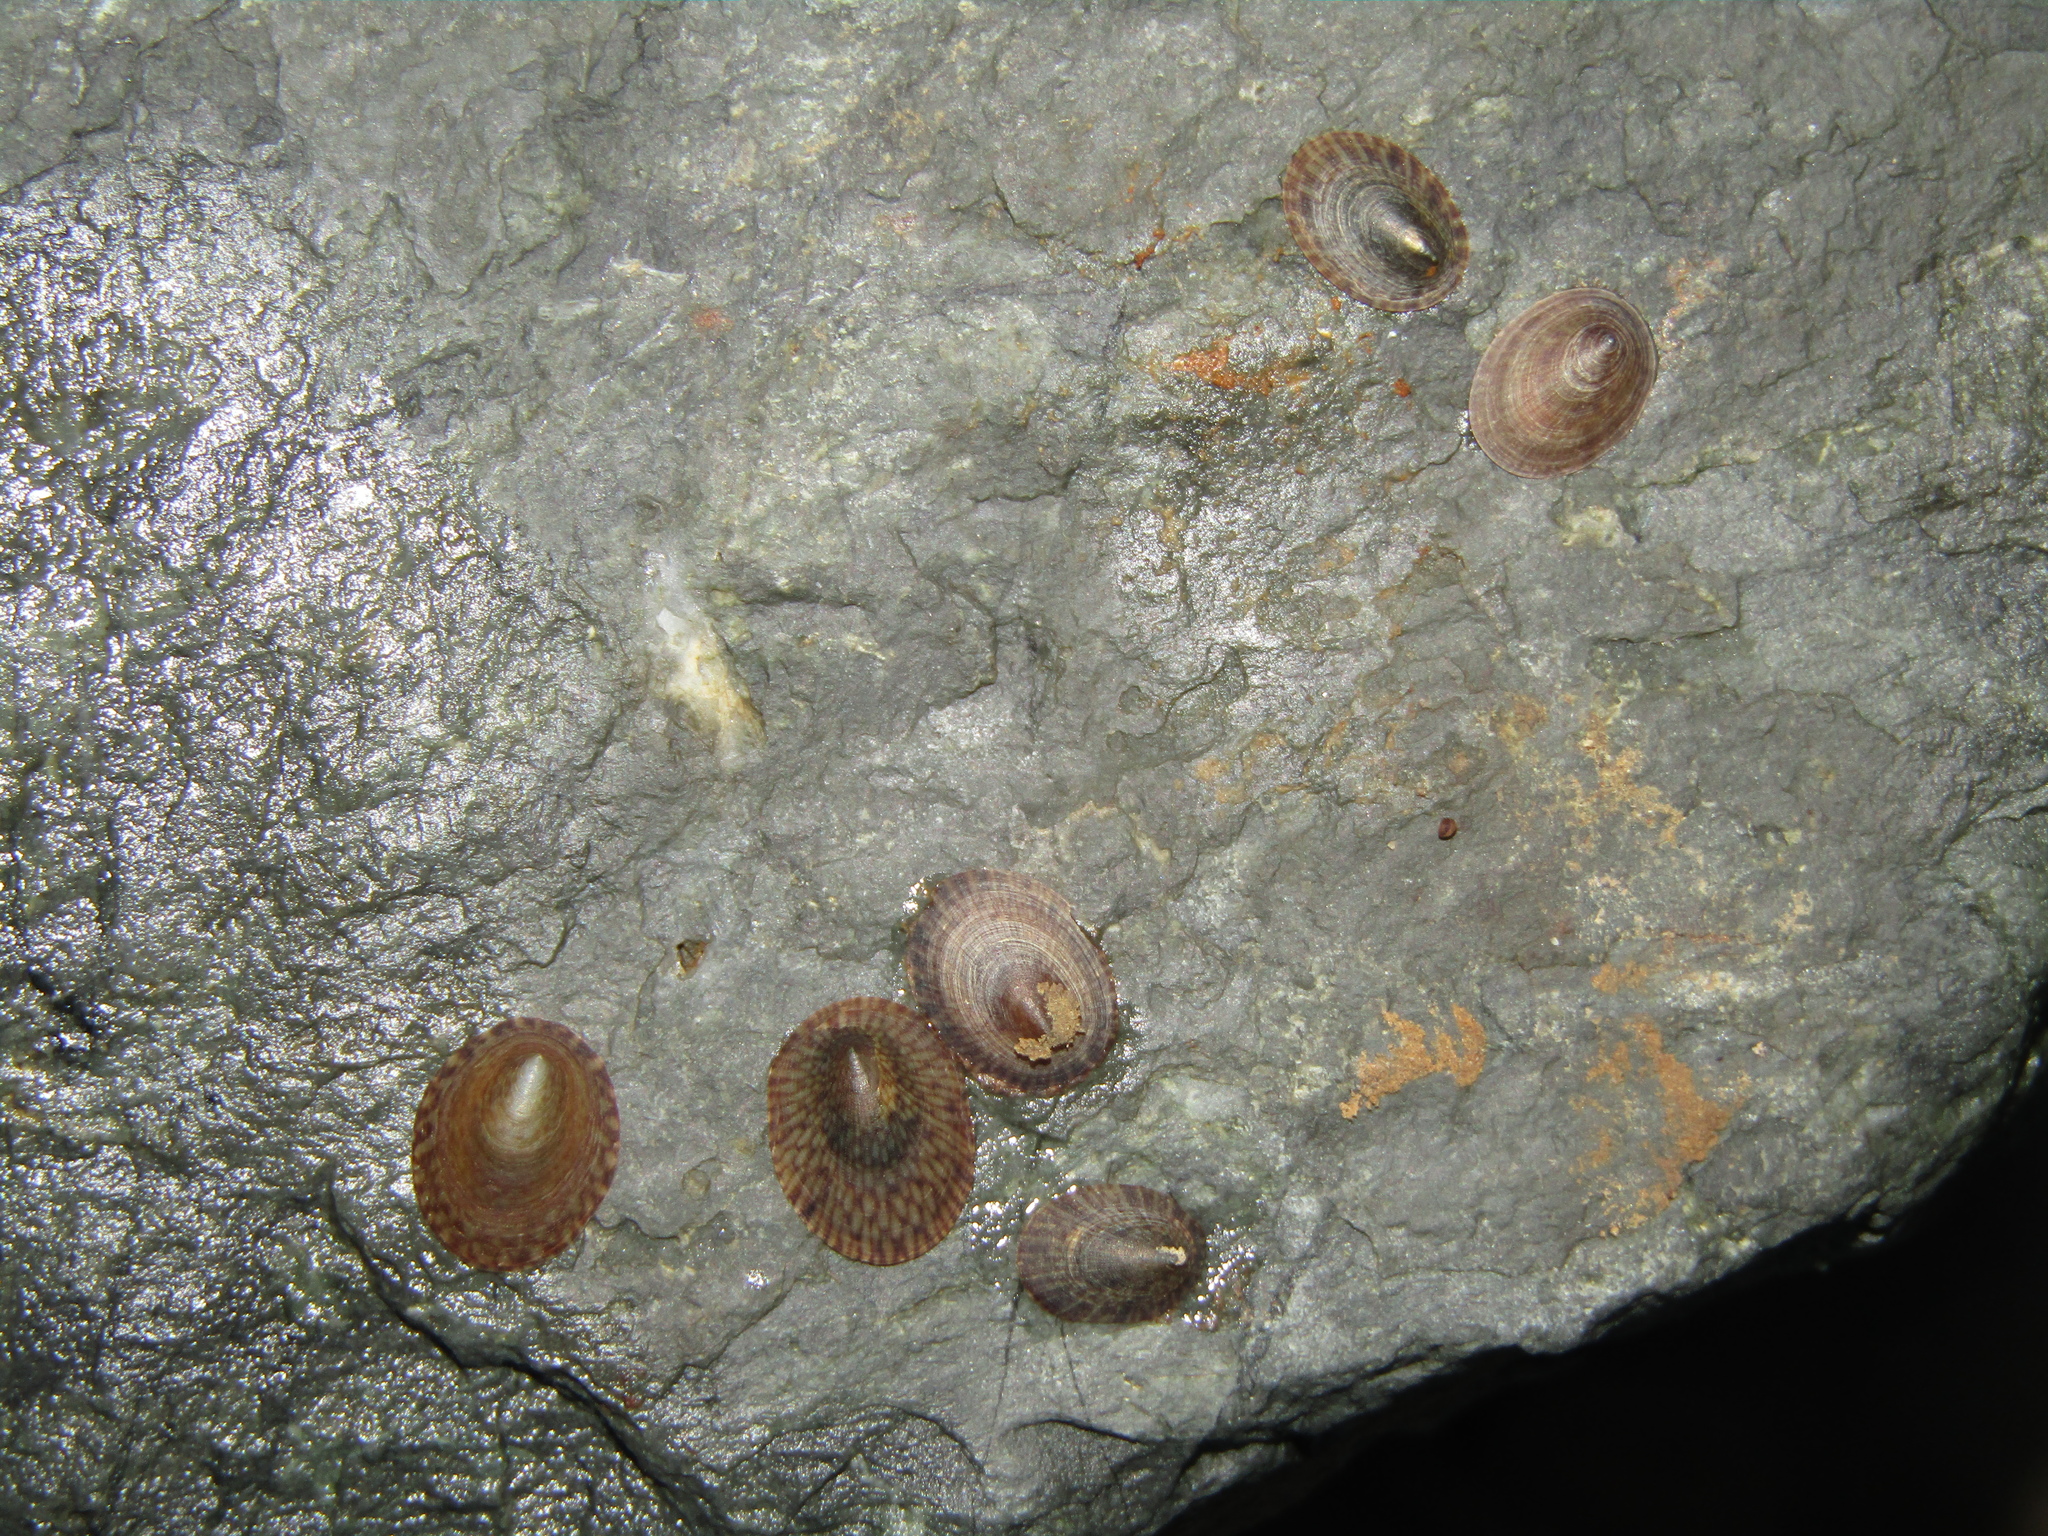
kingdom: Animalia
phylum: Mollusca
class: Gastropoda
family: Lottiidae
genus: Notoacmea
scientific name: Notoacmea
